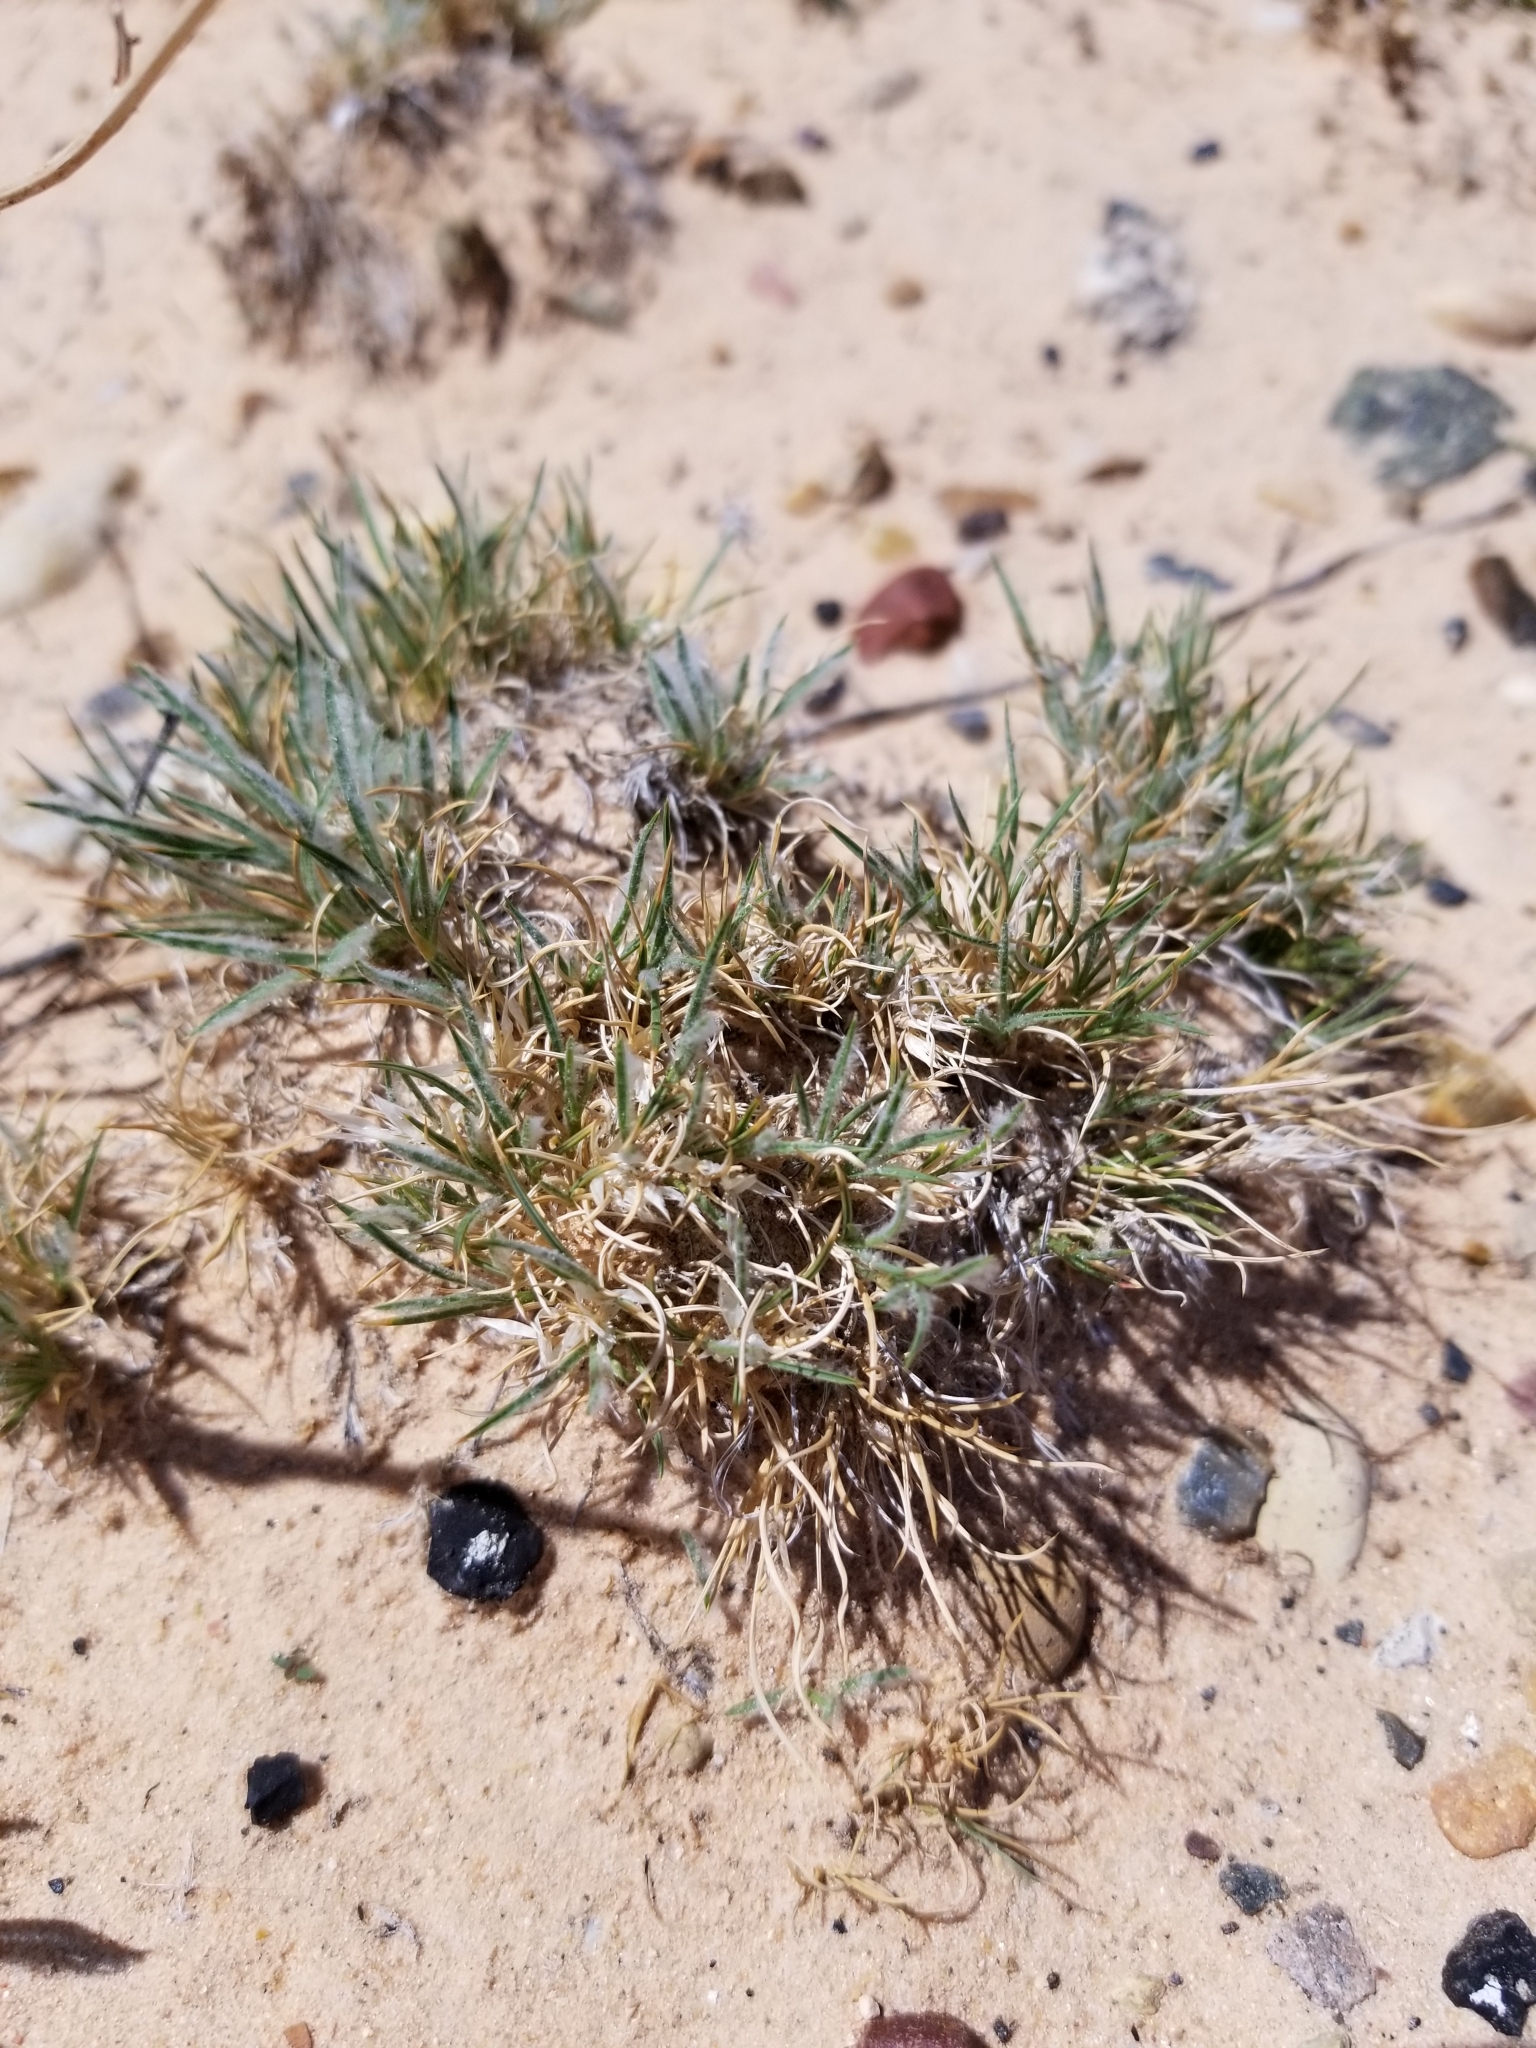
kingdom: Plantae
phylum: Tracheophyta
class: Liliopsida
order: Poales
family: Poaceae
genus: Dasyochloa
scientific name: Dasyochloa pulchella
